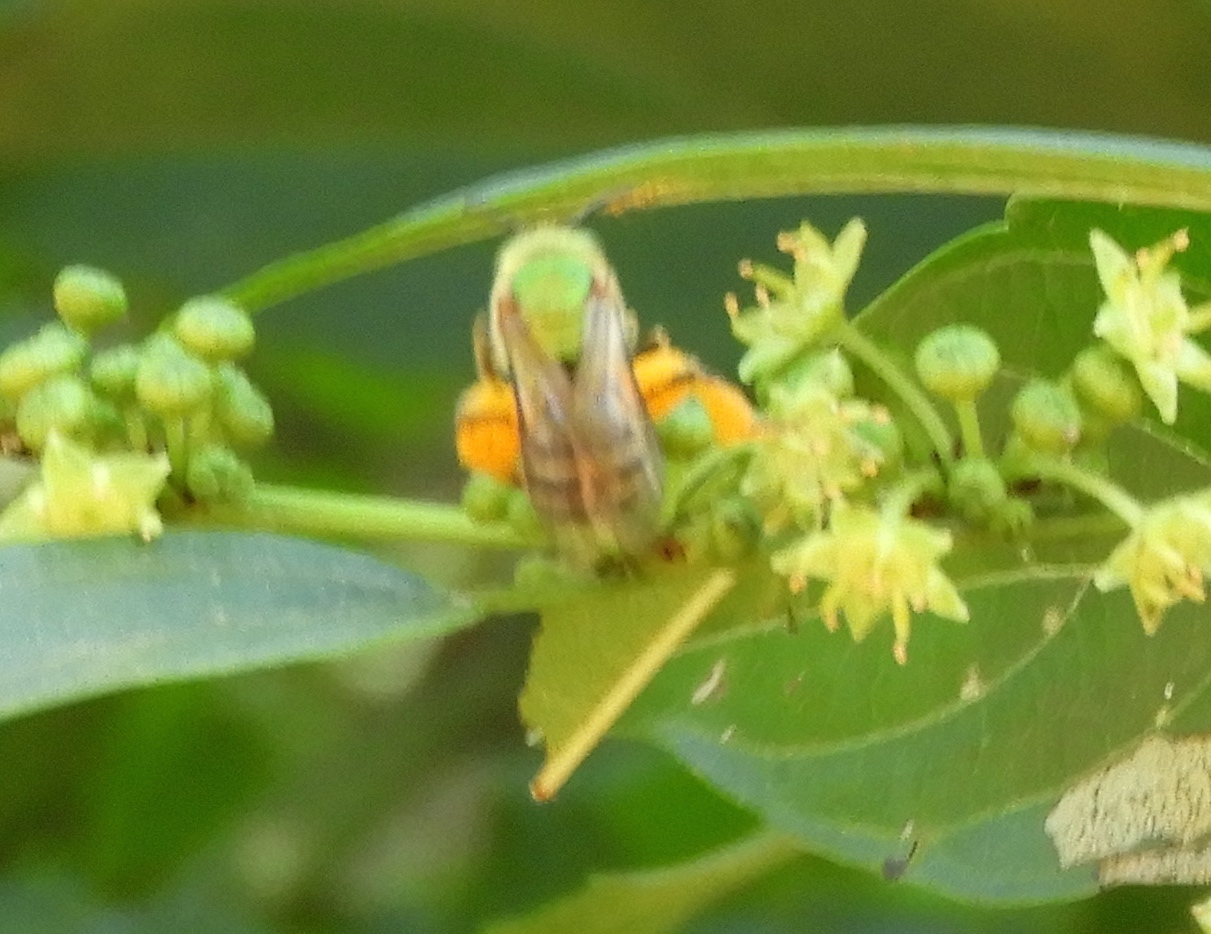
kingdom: Animalia
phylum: Arthropoda
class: Insecta
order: Hymenoptera
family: Halictidae
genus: Agapostemon
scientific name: Agapostemon nasutus
